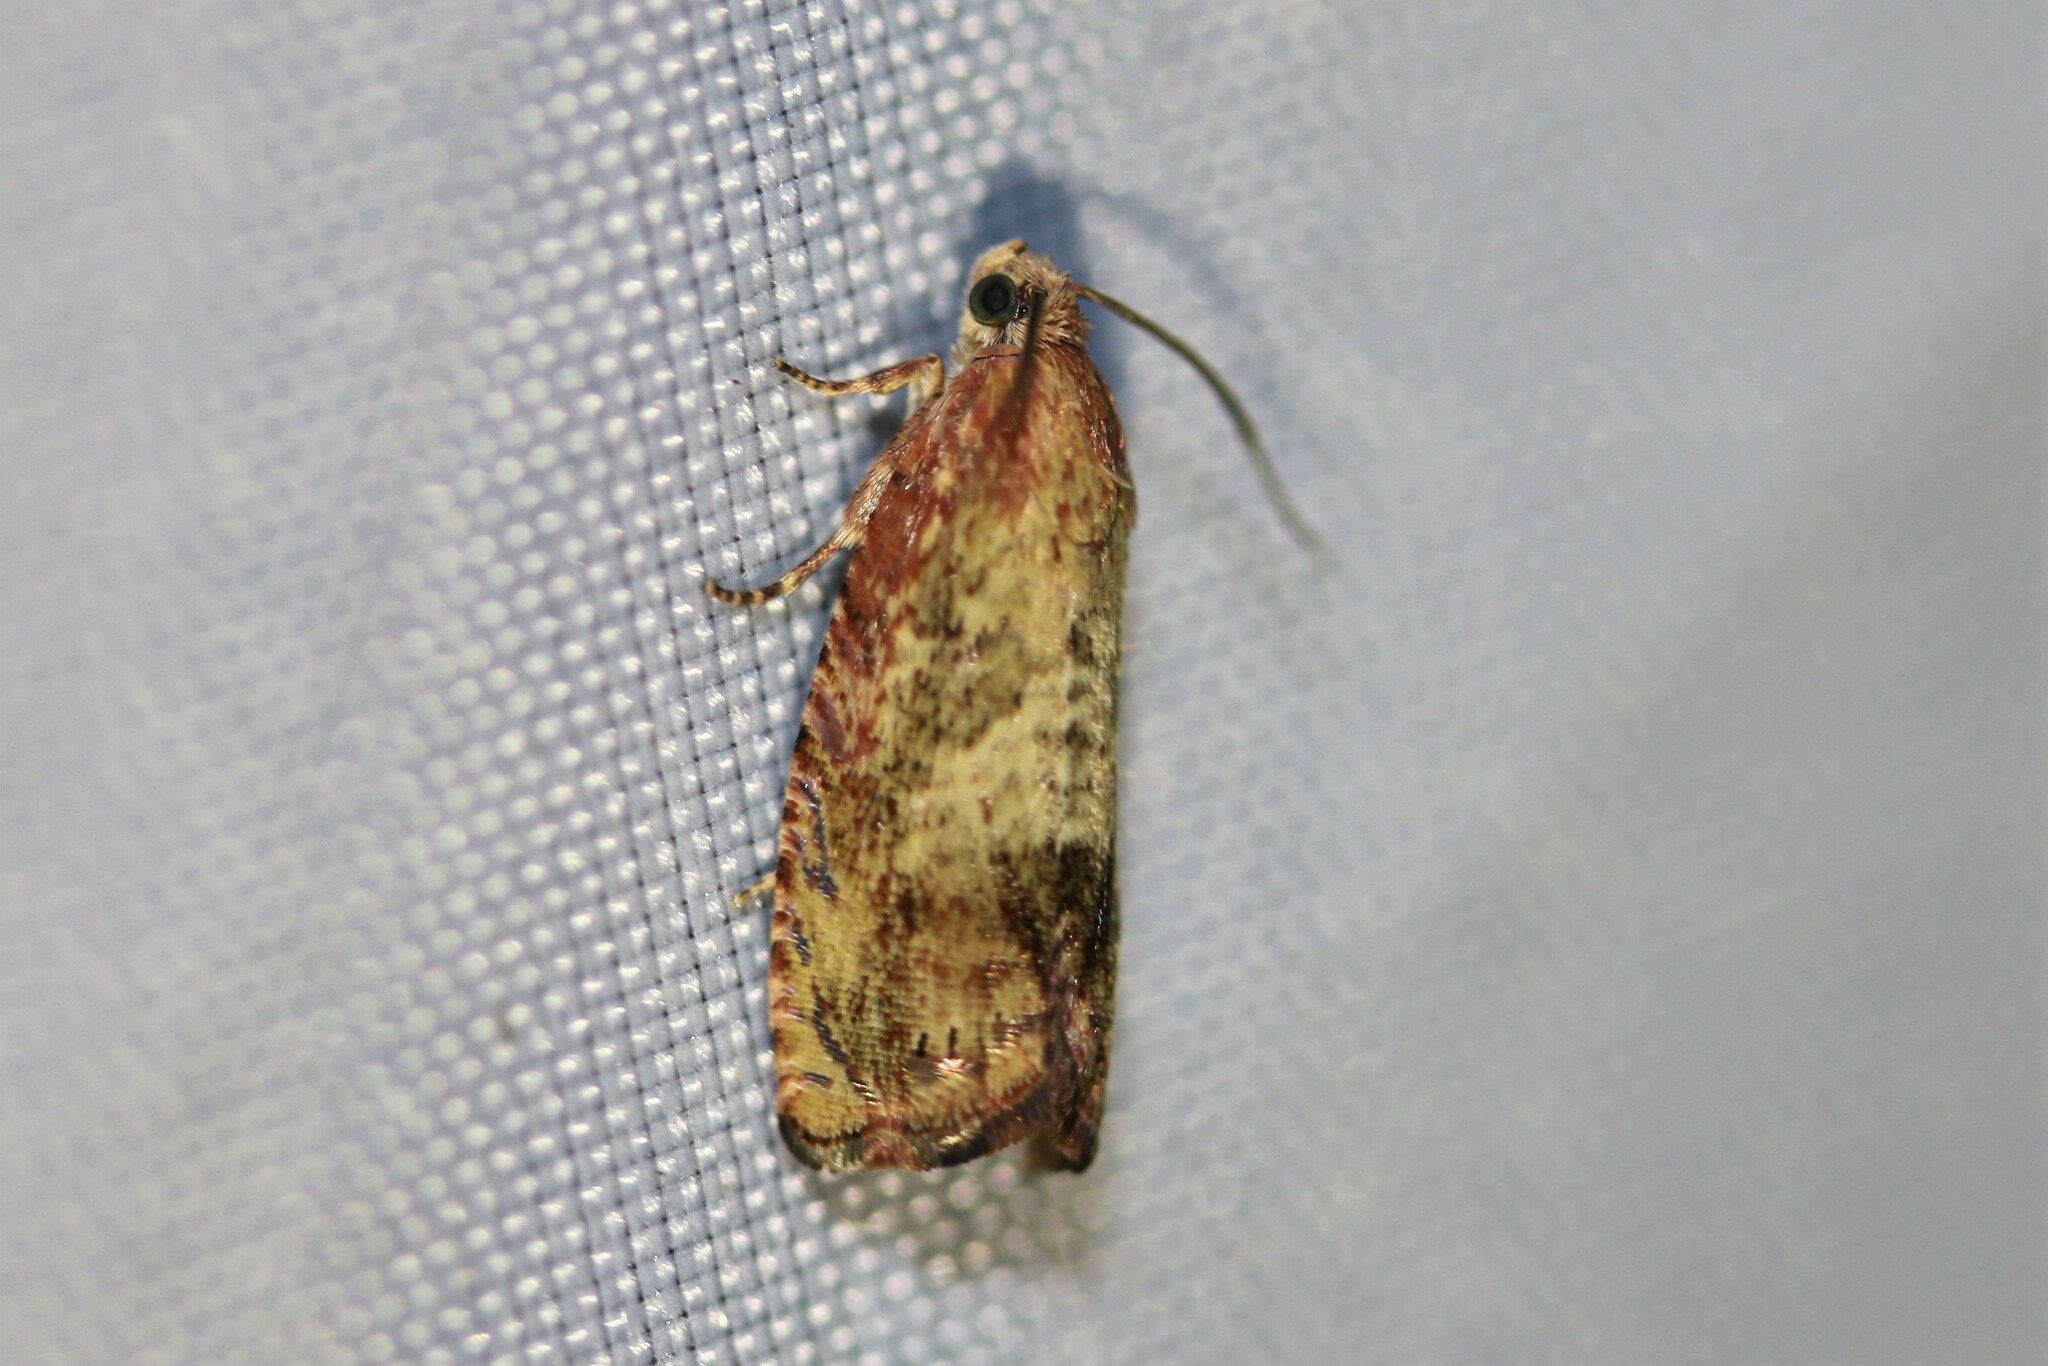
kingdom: Animalia
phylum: Arthropoda
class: Insecta
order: Lepidoptera
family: Tortricidae
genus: Cydia
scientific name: Cydia amplana
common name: Vagrant piercer
